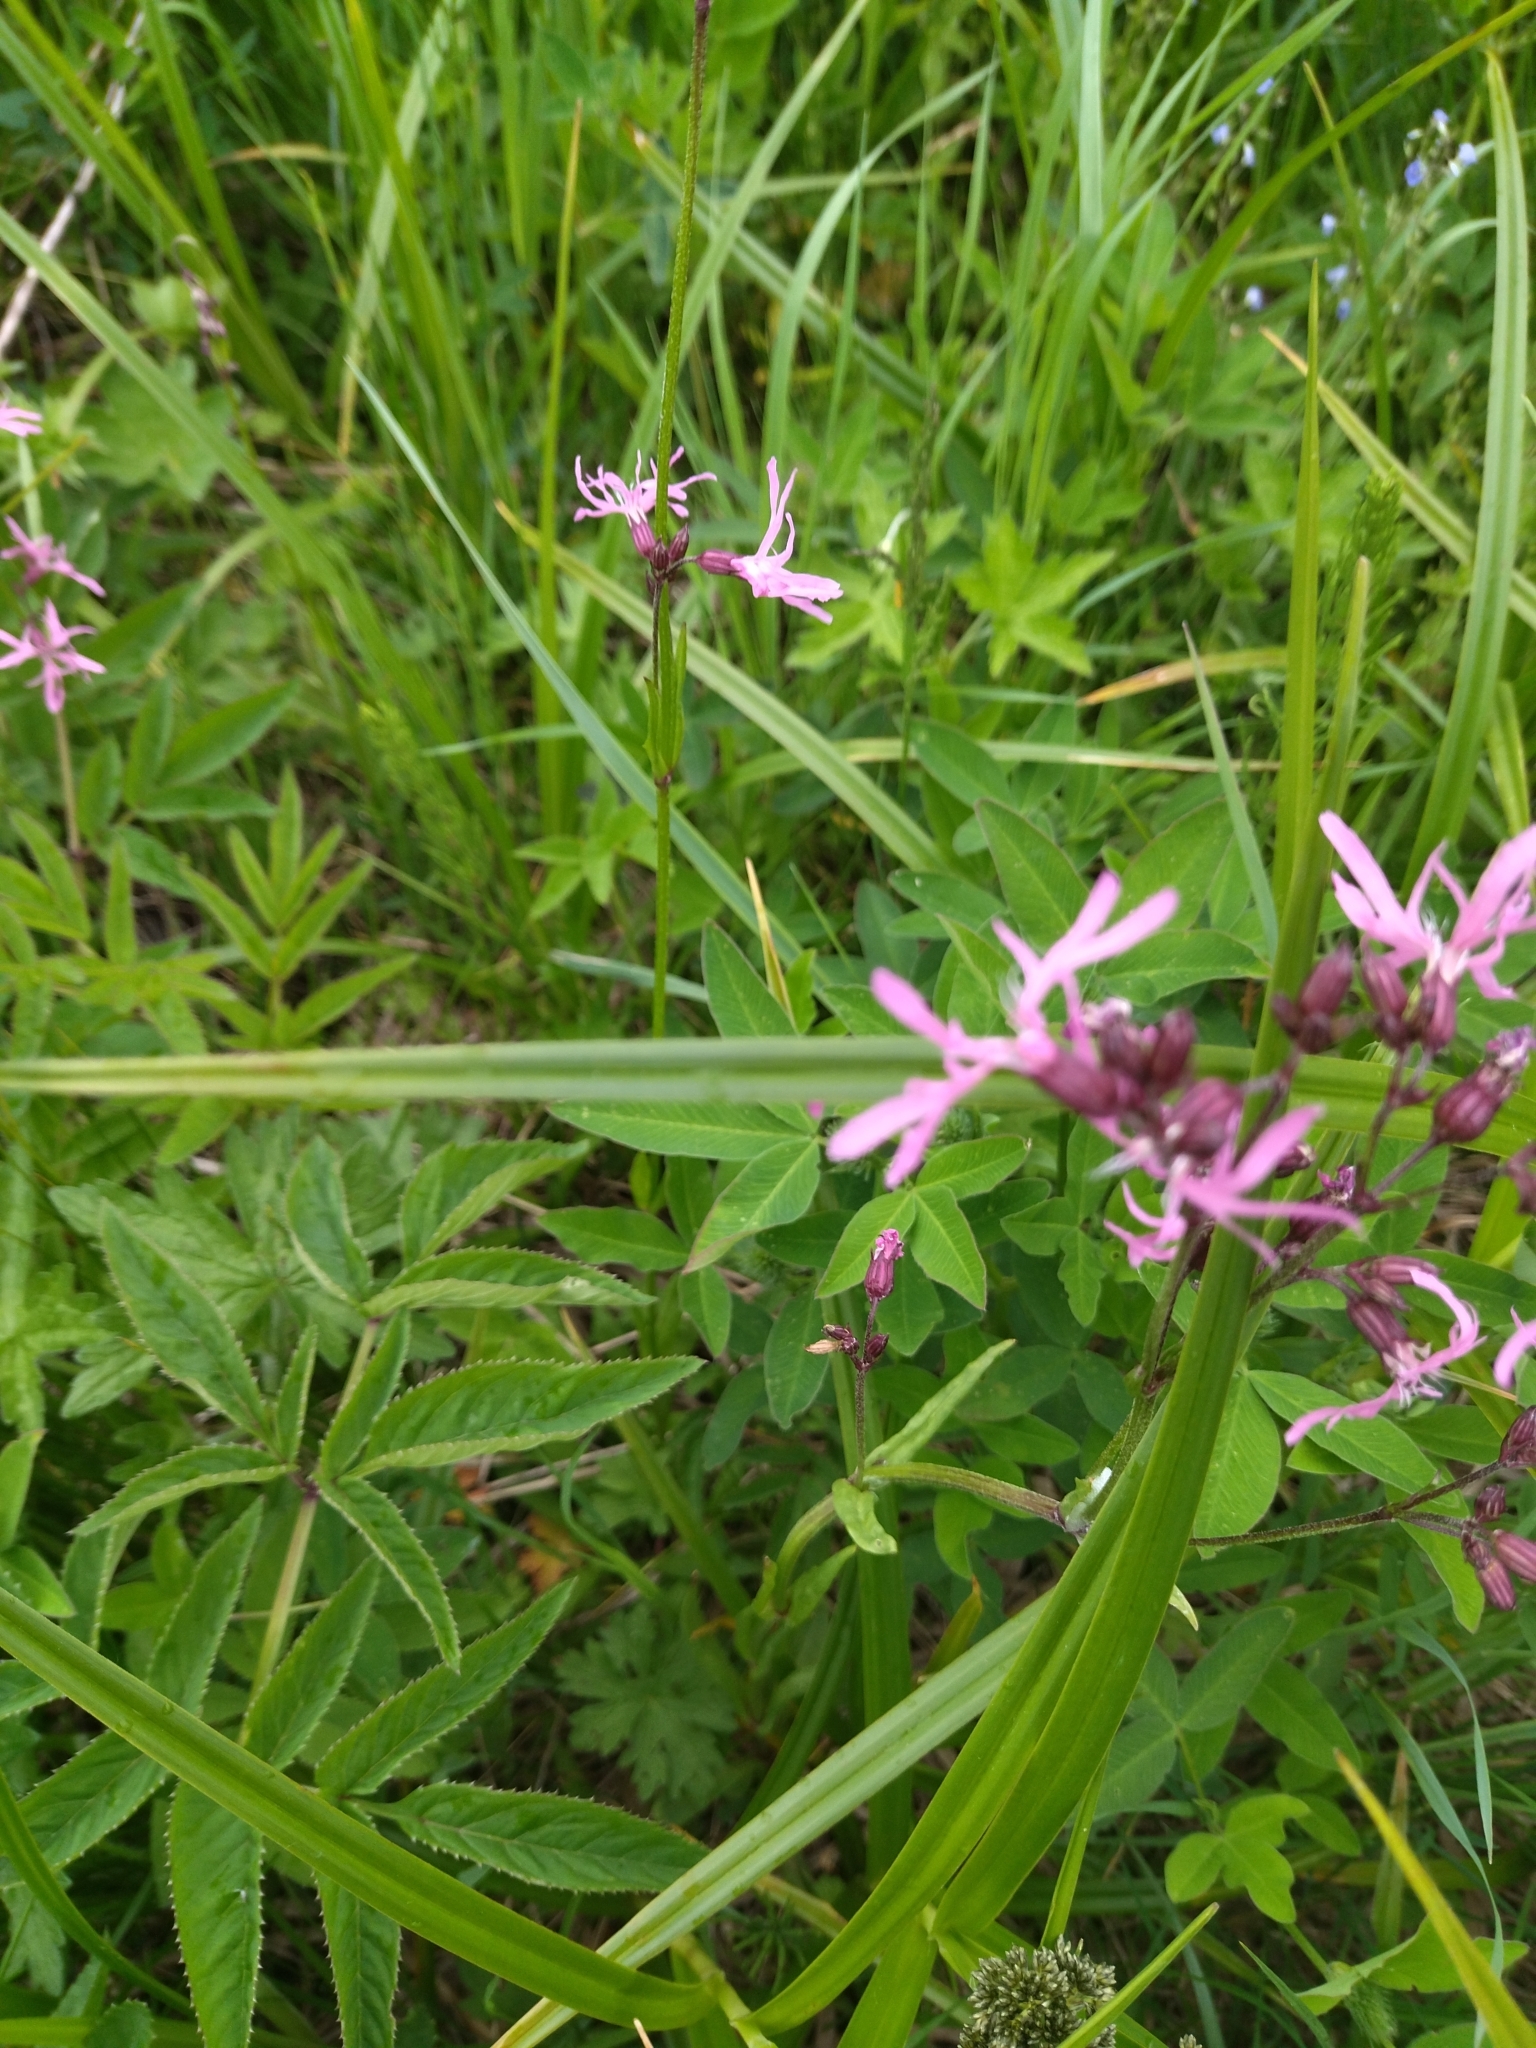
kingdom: Plantae
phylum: Tracheophyta
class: Magnoliopsida
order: Caryophyllales
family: Caryophyllaceae
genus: Silene
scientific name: Silene flos-cuculi
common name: Ragged-robin
